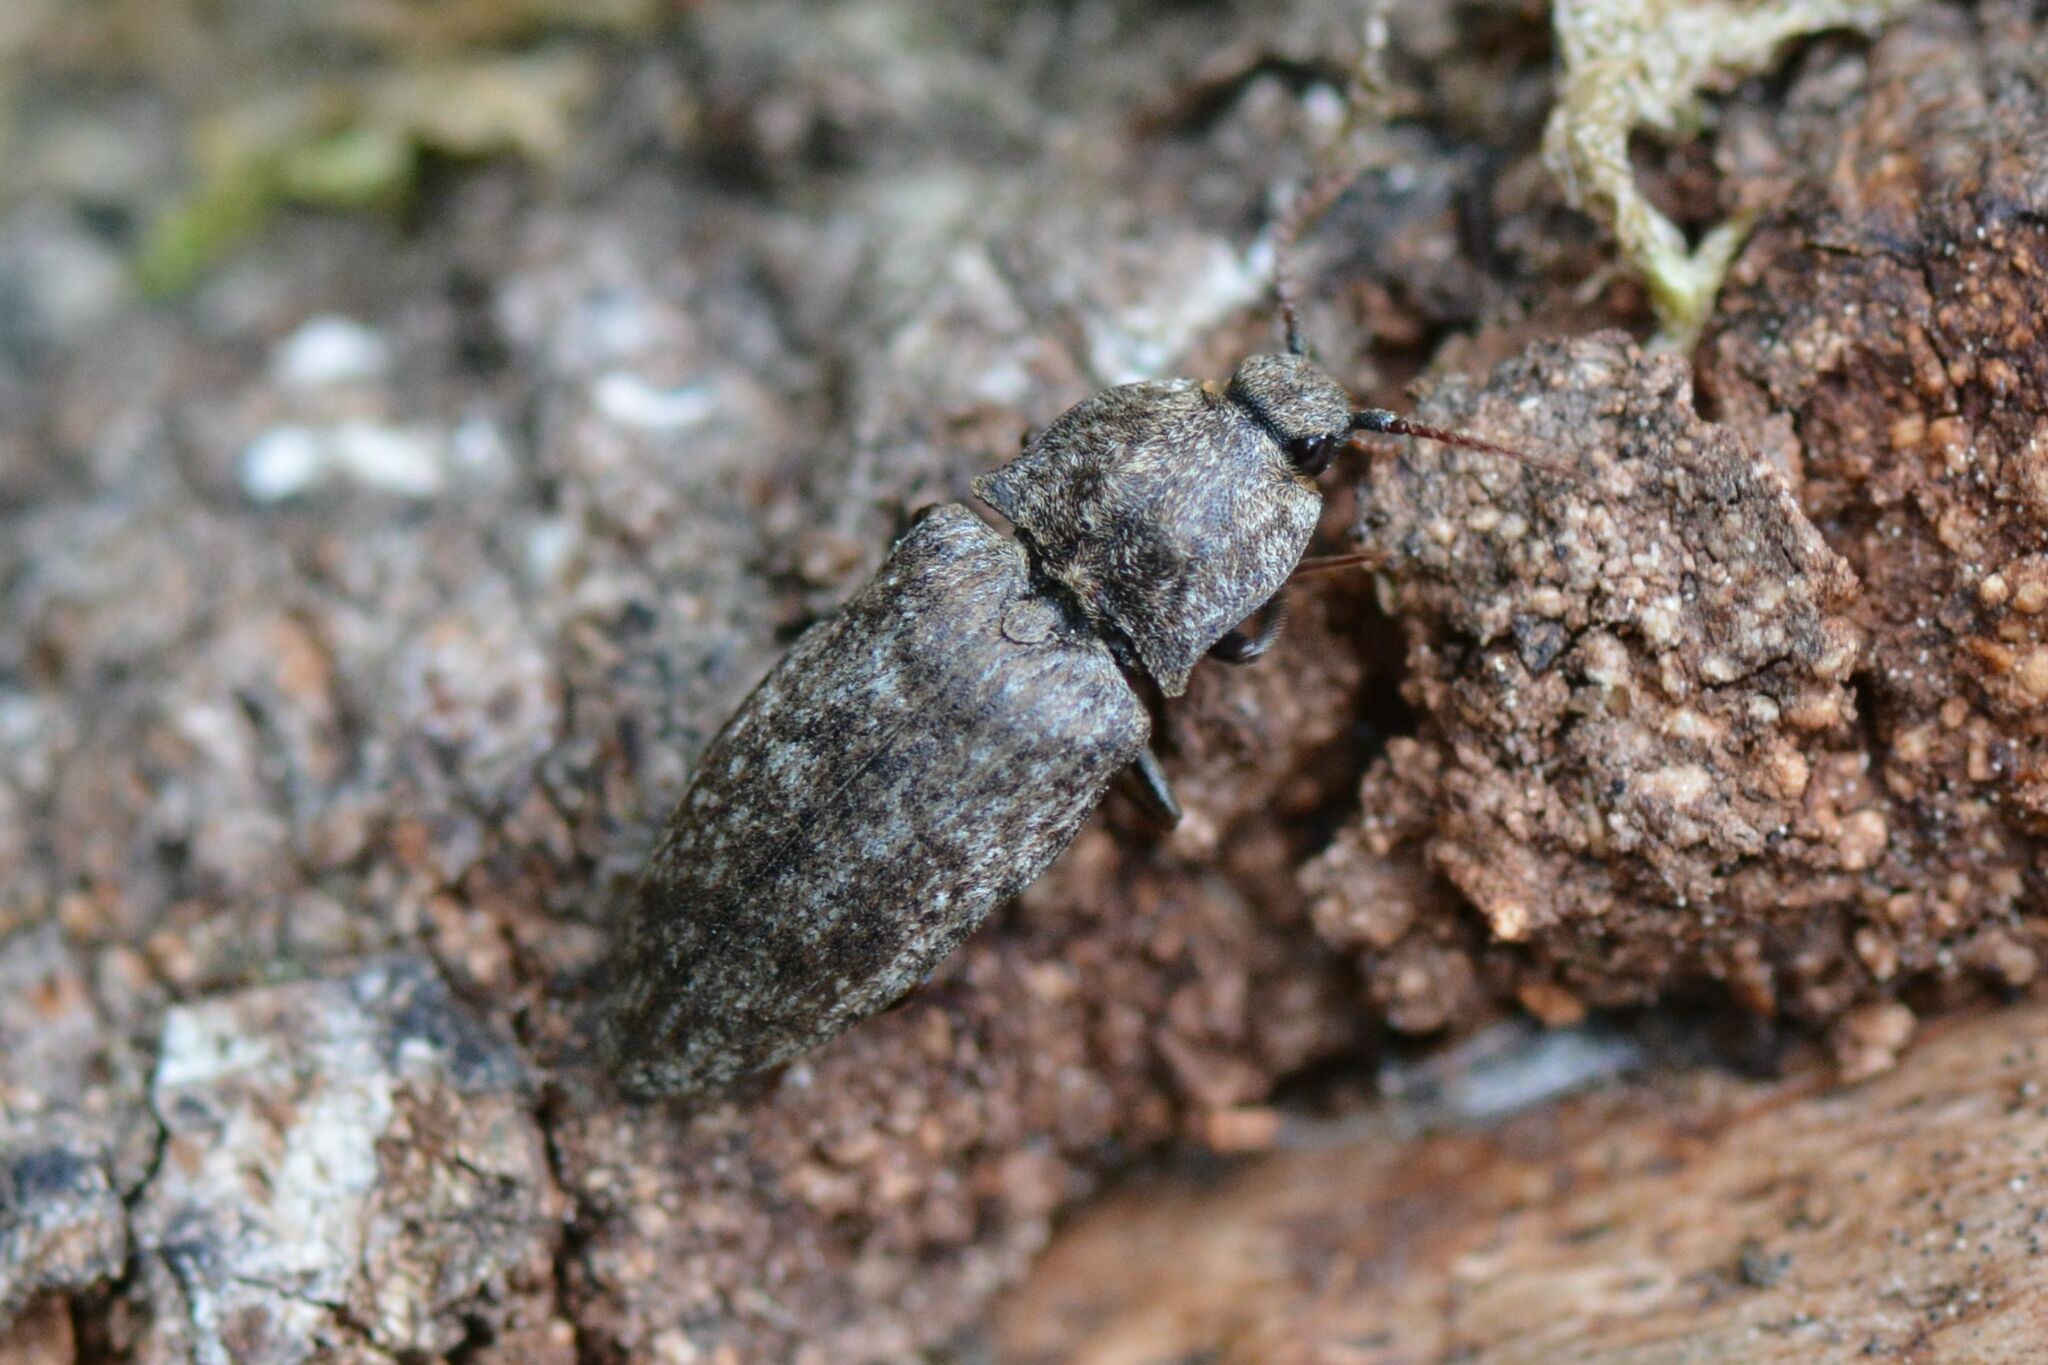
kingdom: Animalia
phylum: Arthropoda
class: Insecta
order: Coleoptera
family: Elateridae
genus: Agrypnus
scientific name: Agrypnus murinus
